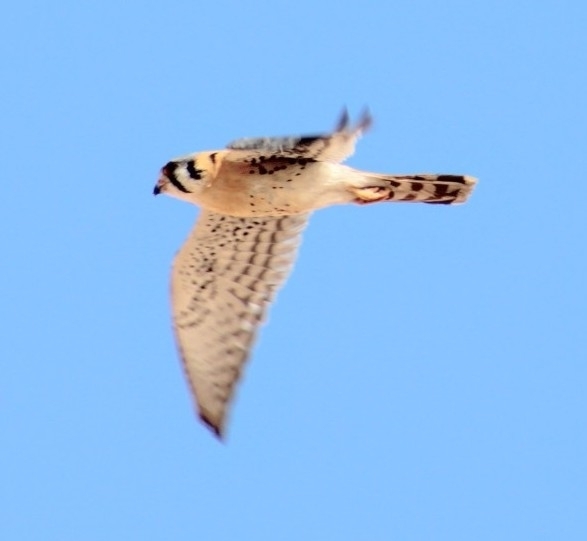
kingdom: Animalia
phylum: Chordata
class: Aves
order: Falconiformes
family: Falconidae
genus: Falco
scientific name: Falco sparverius
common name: American kestrel
